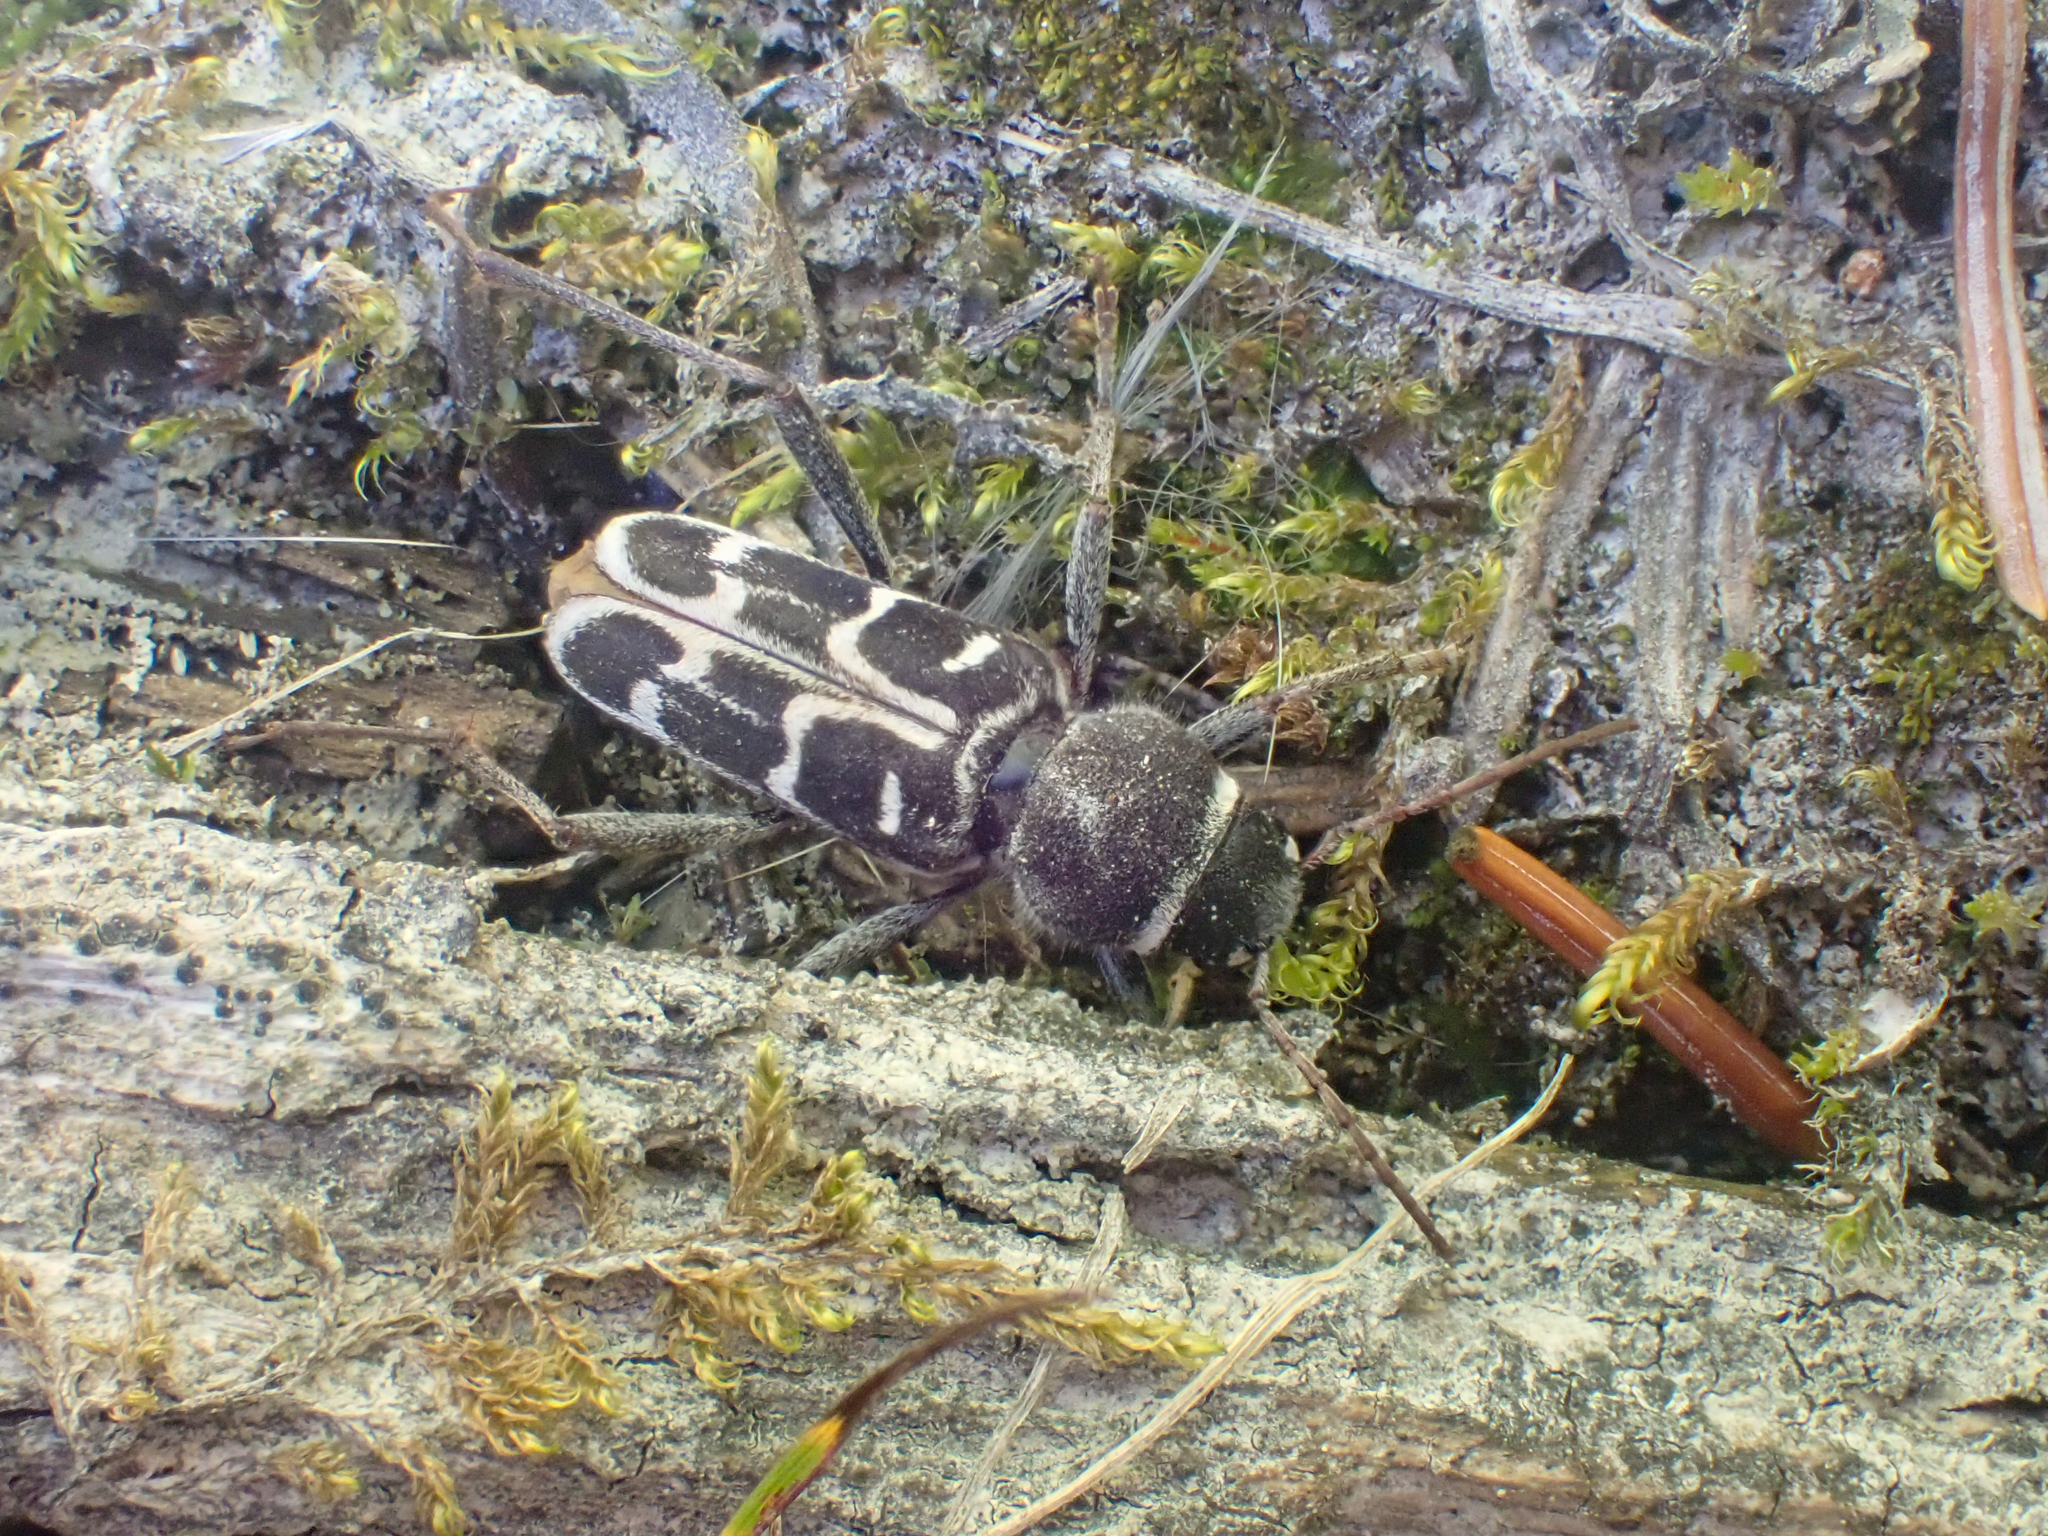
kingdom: Animalia
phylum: Arthropoda
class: Insecta
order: Coleoptera
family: Cerambycidae
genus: Xylotrechus
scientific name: Xylotrechus undulatus
